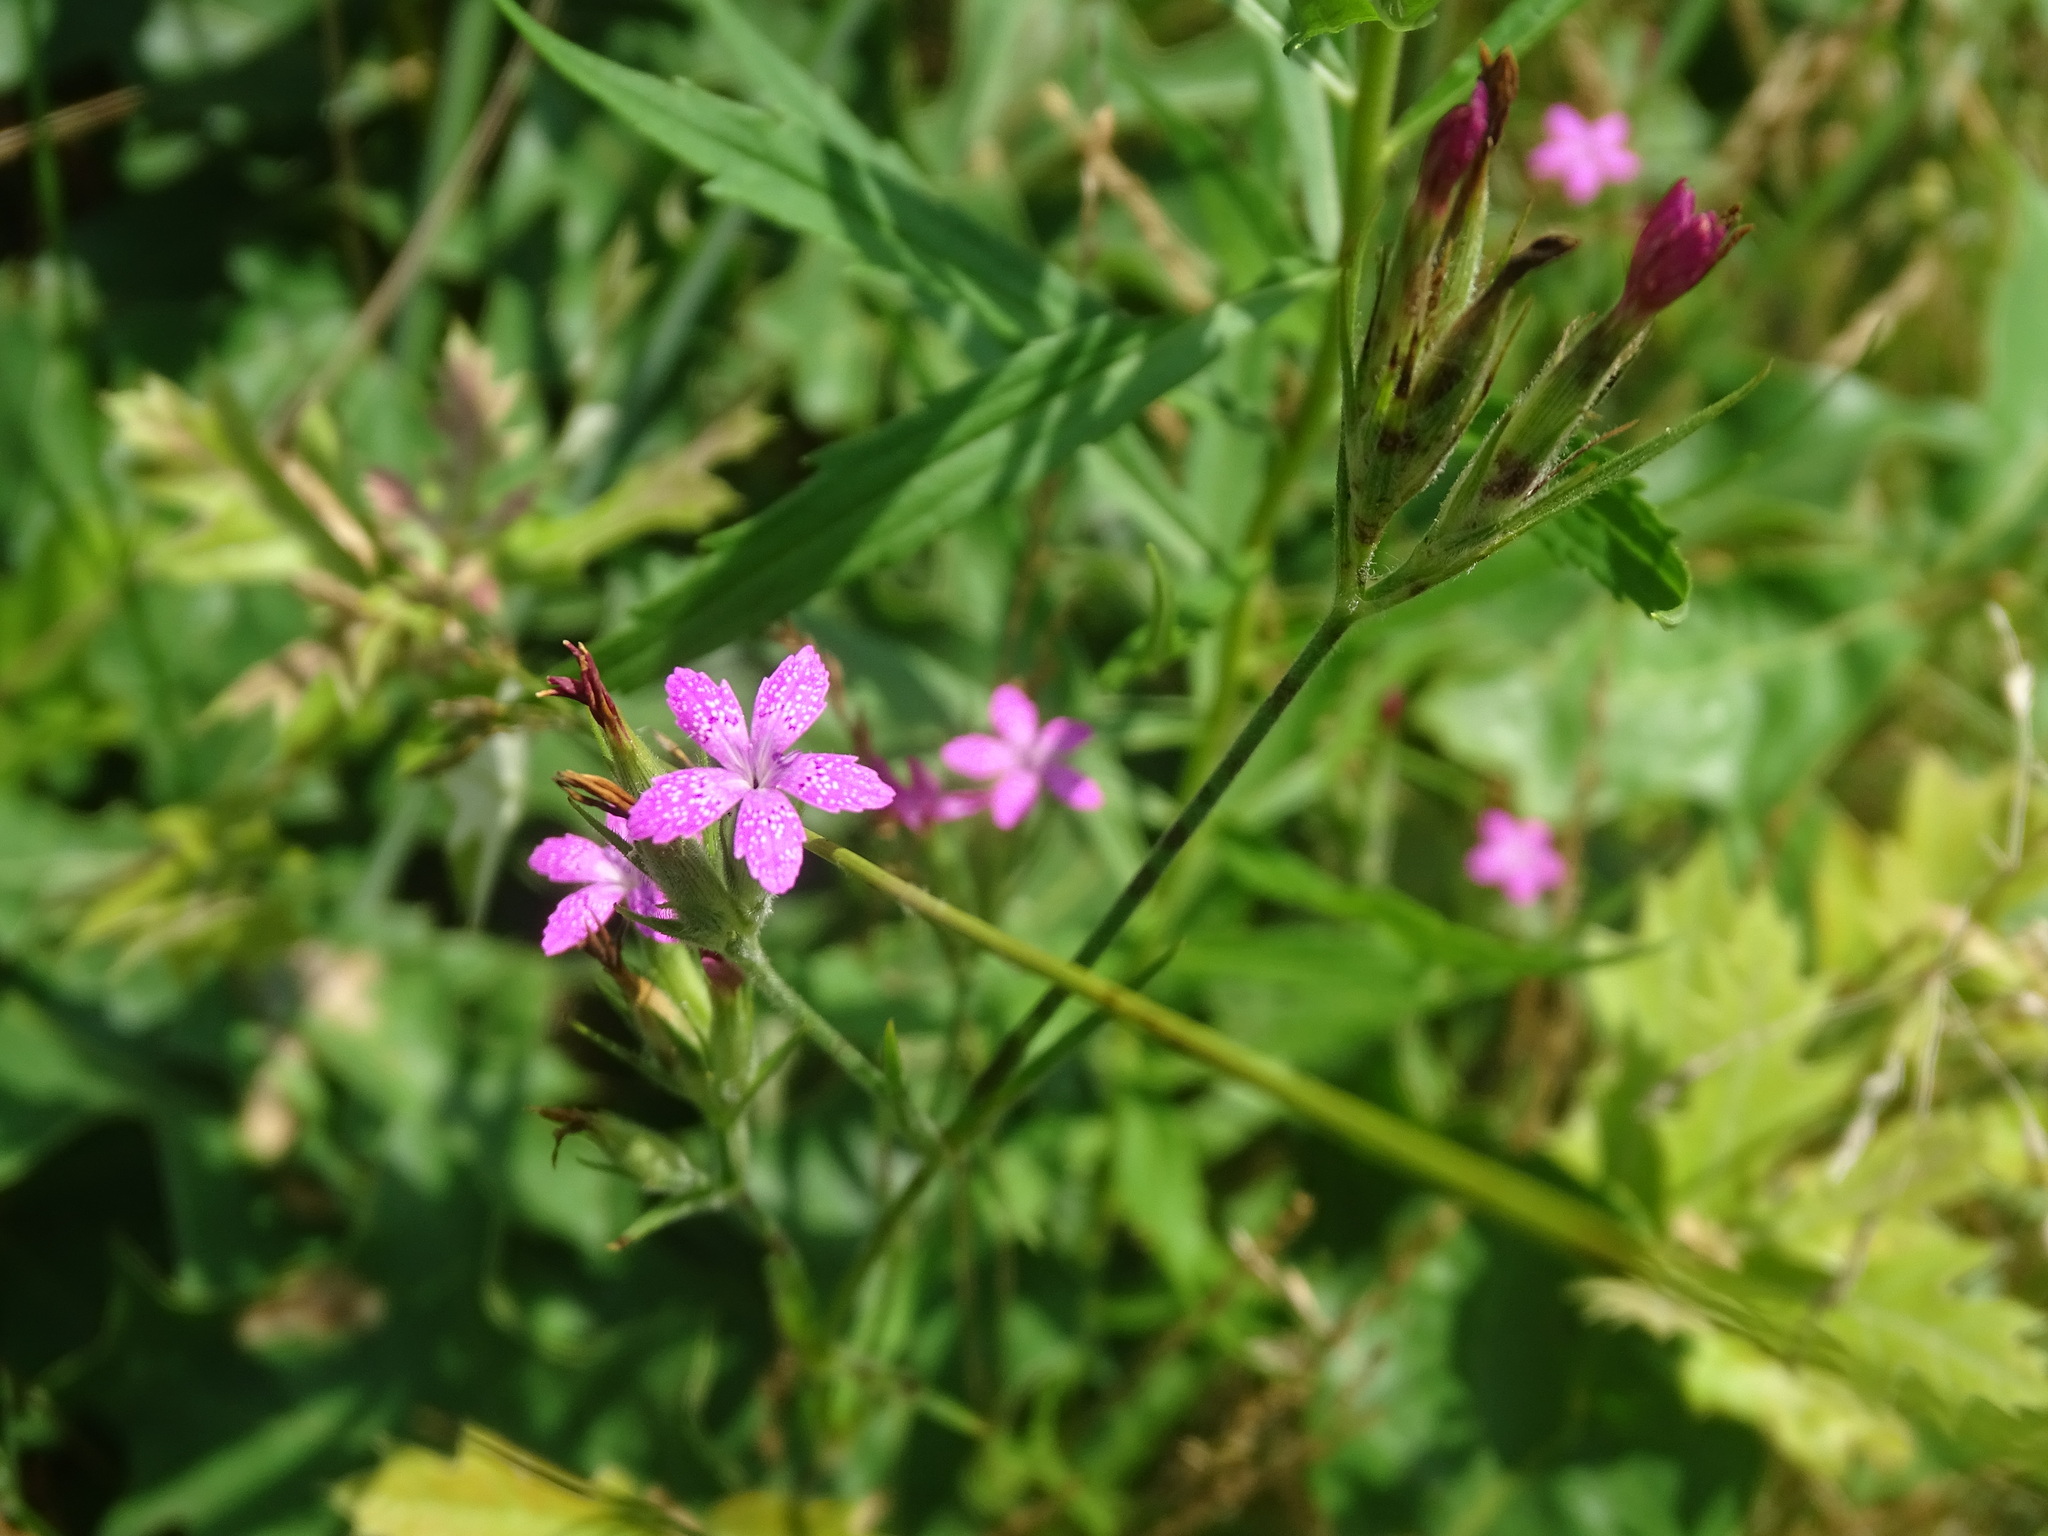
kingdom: Plantae
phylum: Tracheophyta
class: Magnoliopsida
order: Caryophyllales
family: Caryophyllaceae
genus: Dianthus
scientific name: Dianthus armeria
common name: Deptford pink
